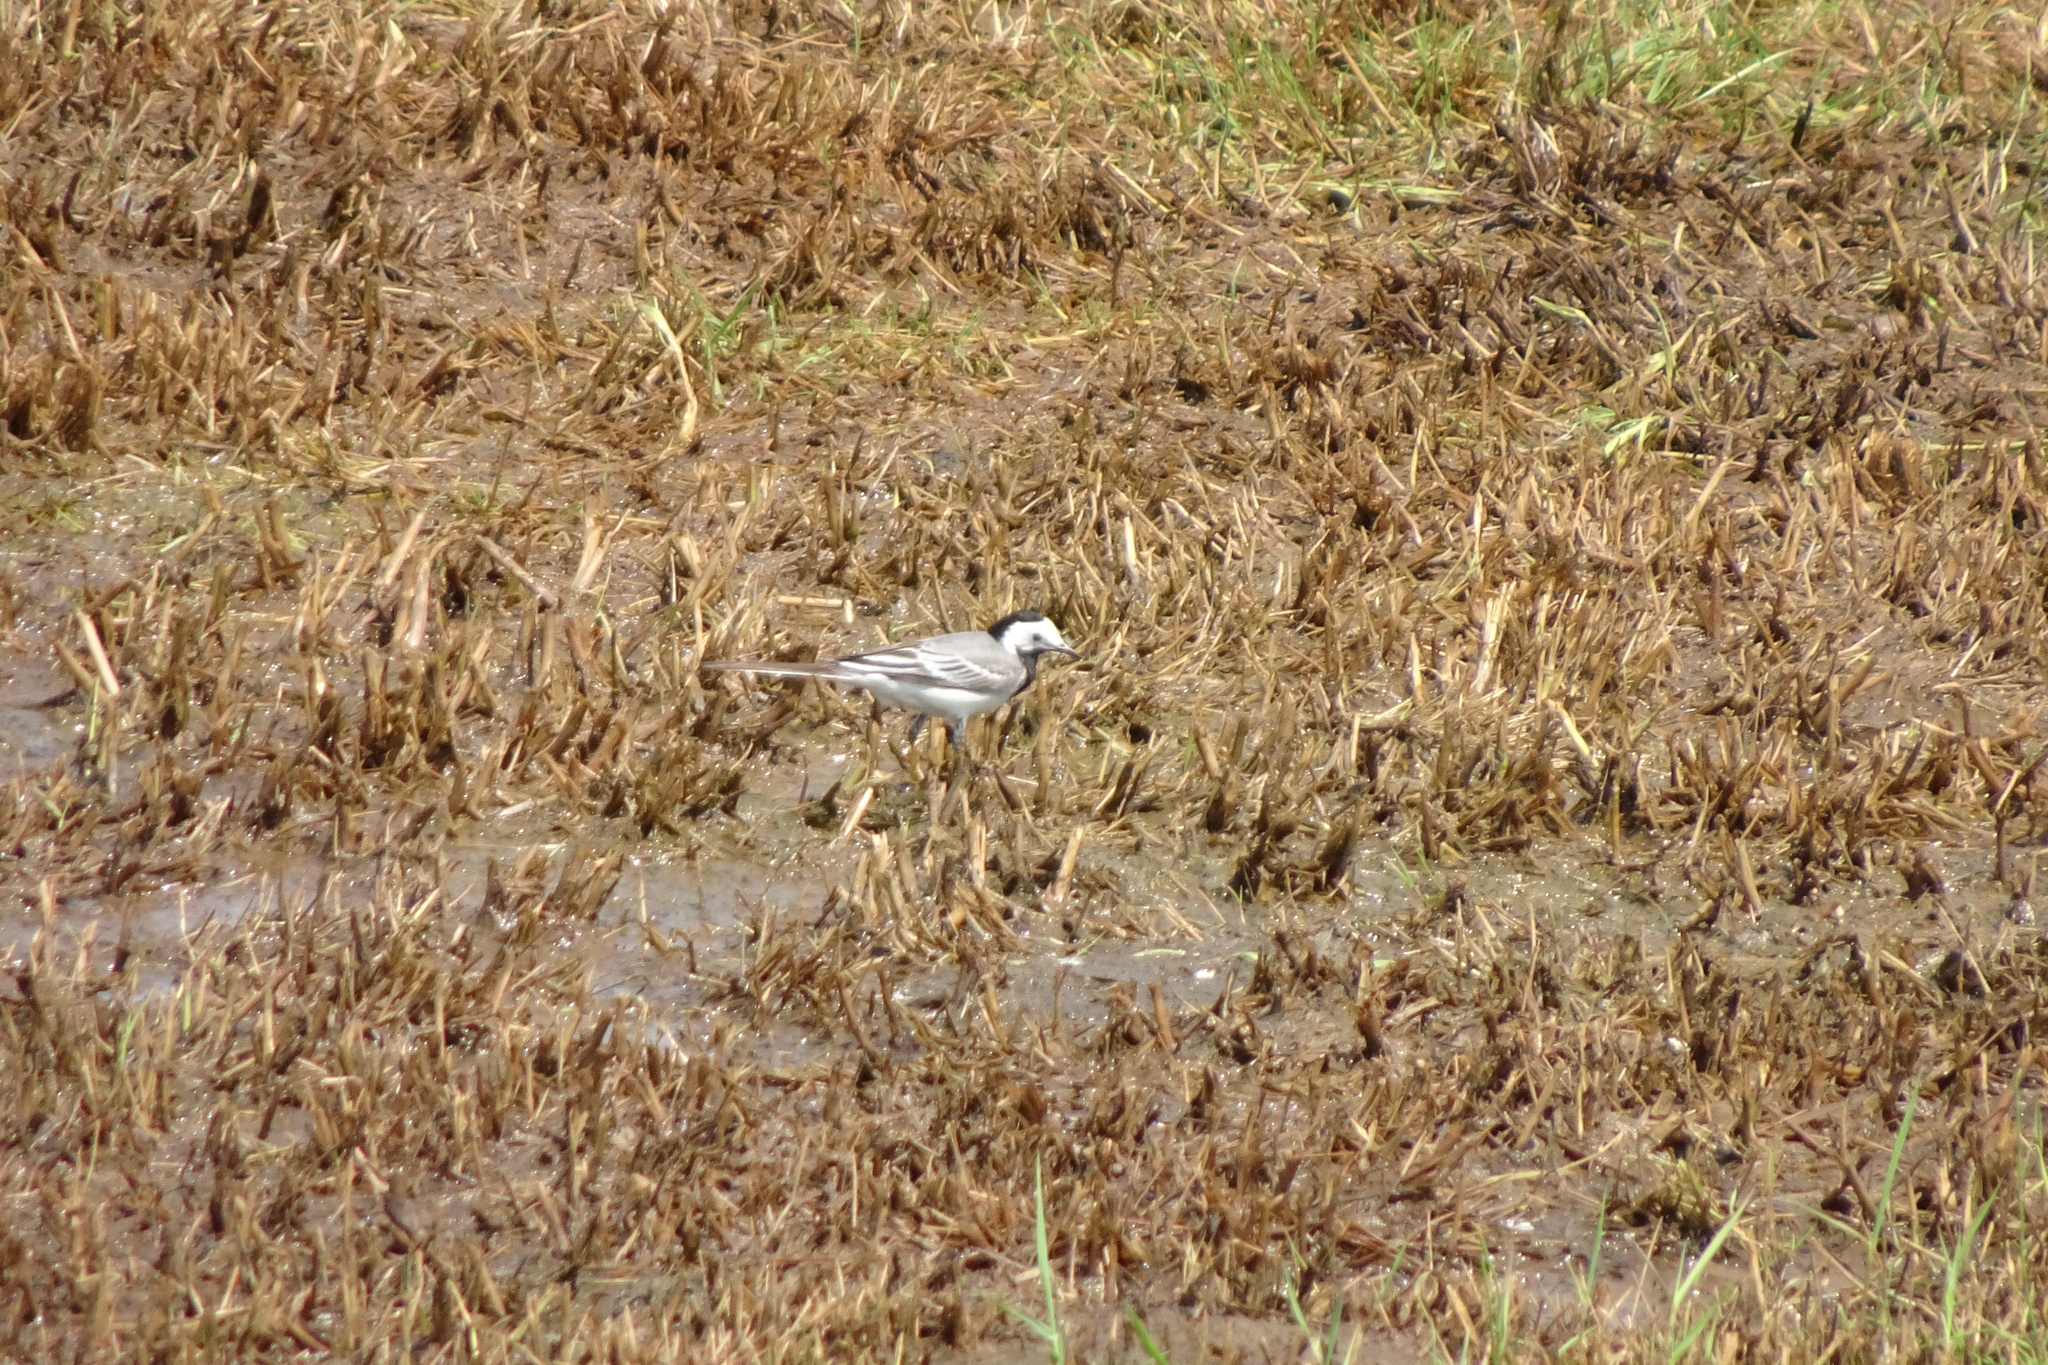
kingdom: Animalia
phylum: Chordata
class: Aves
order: Passeriformes
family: Motacillidae
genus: Motacilla
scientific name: Motacilla alba
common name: White wagtail
